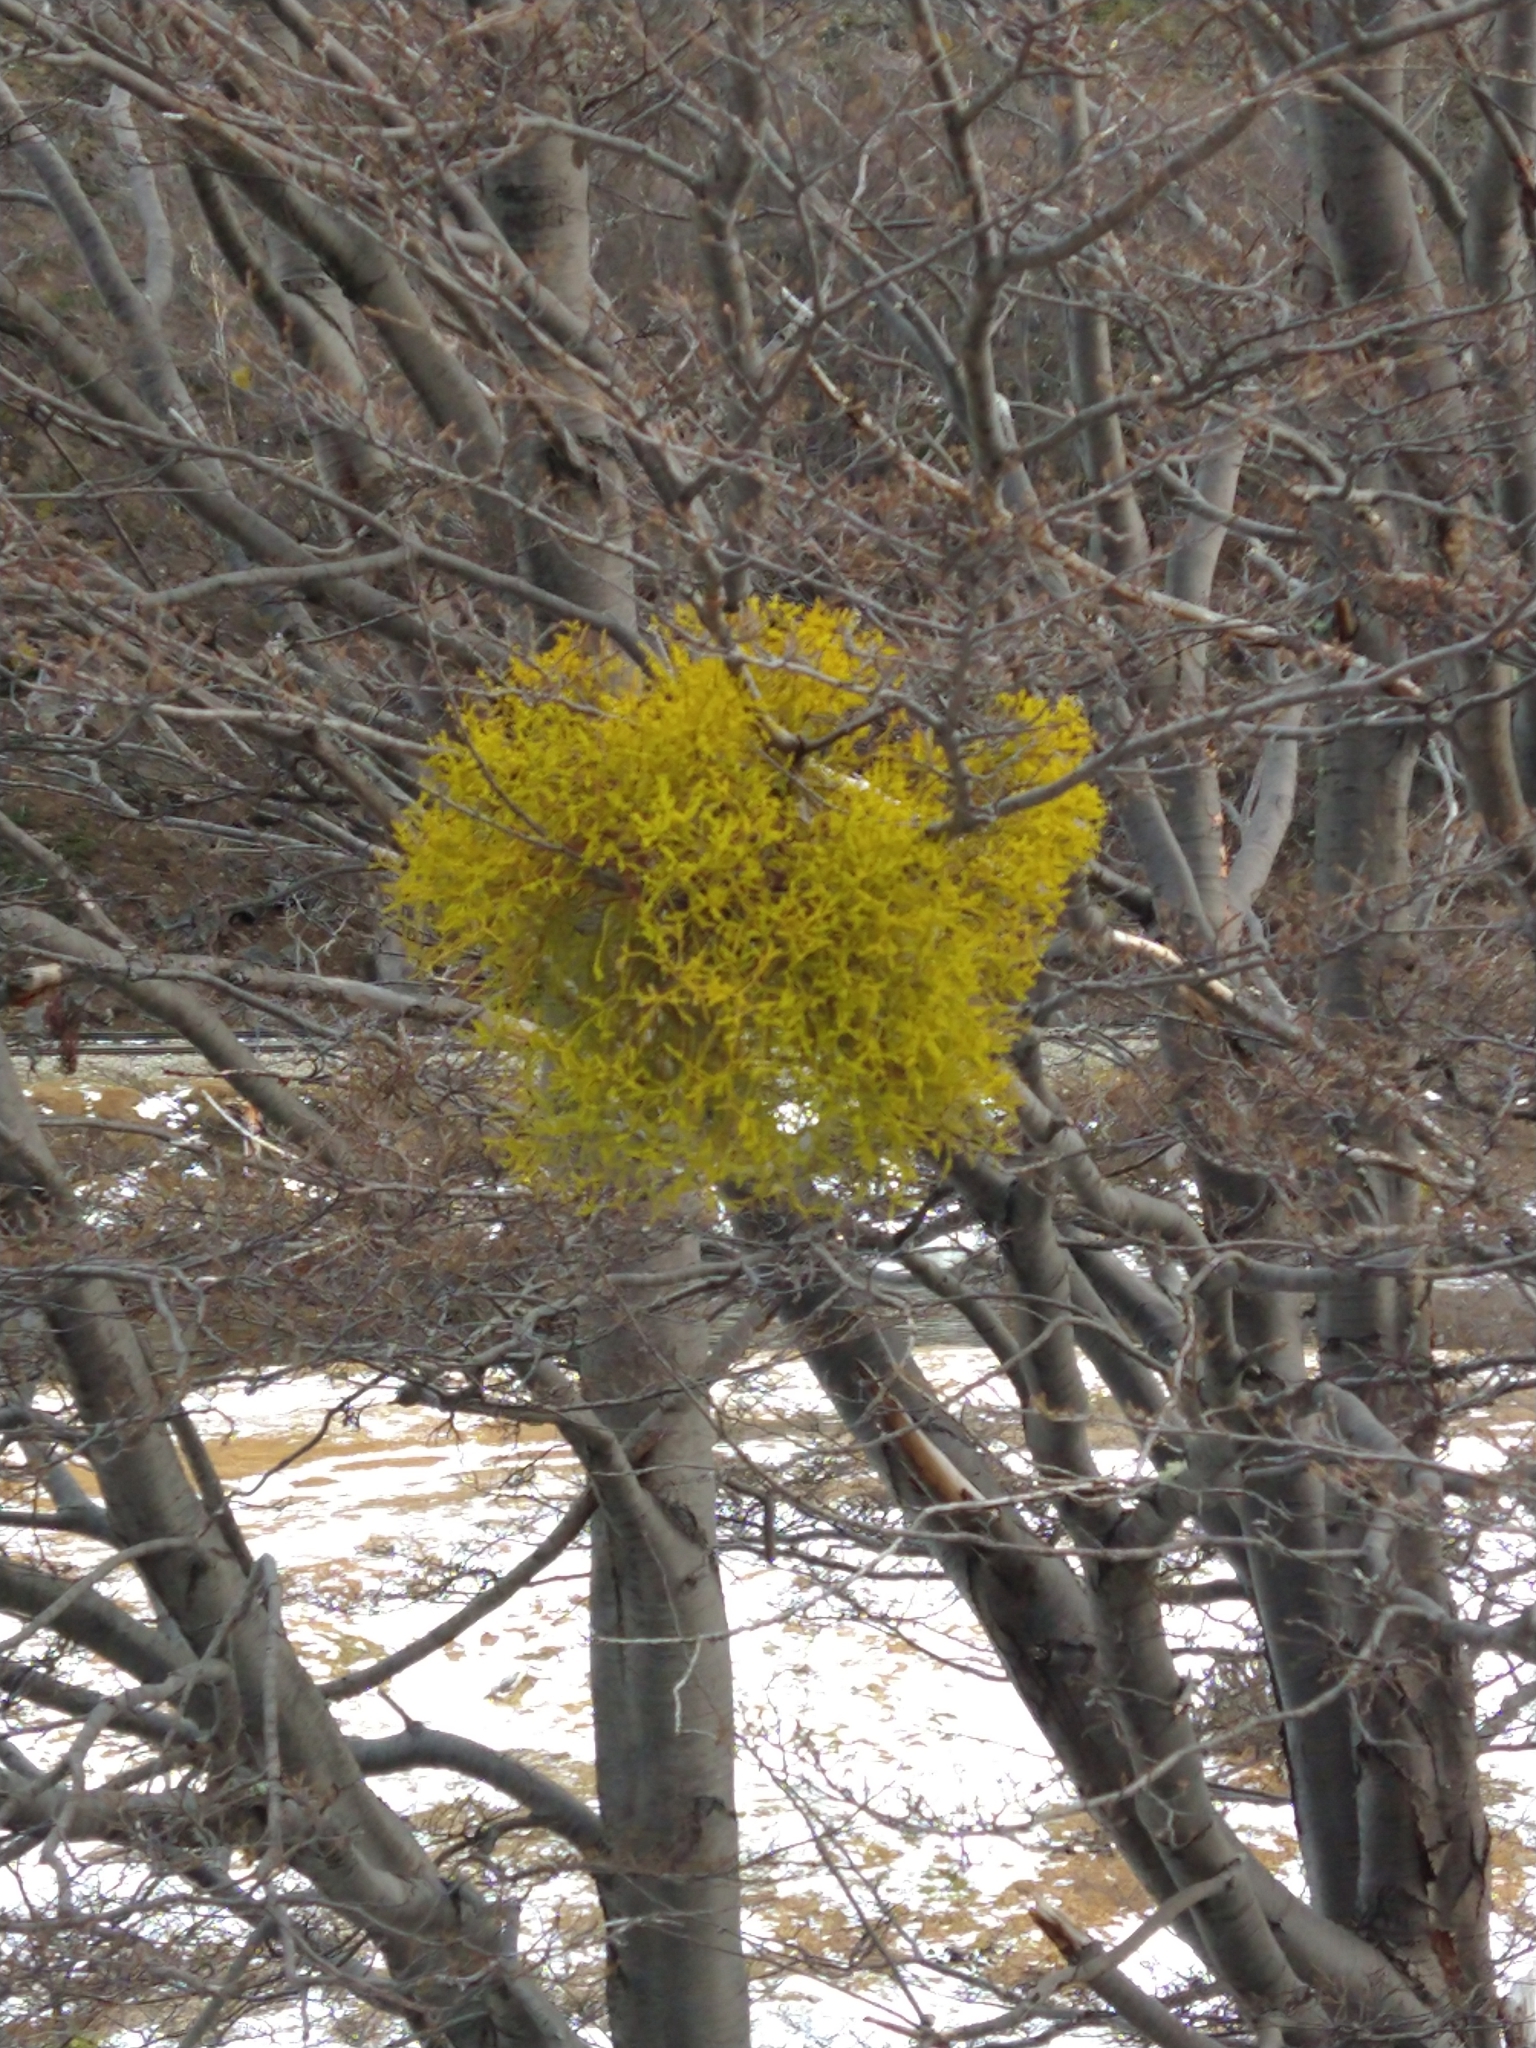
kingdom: Plantae
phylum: Tracheophyta
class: Magnoliopsida
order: Santalales
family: Misodendraceae
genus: Misodendrum
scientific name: Misodendrum punctulatum
